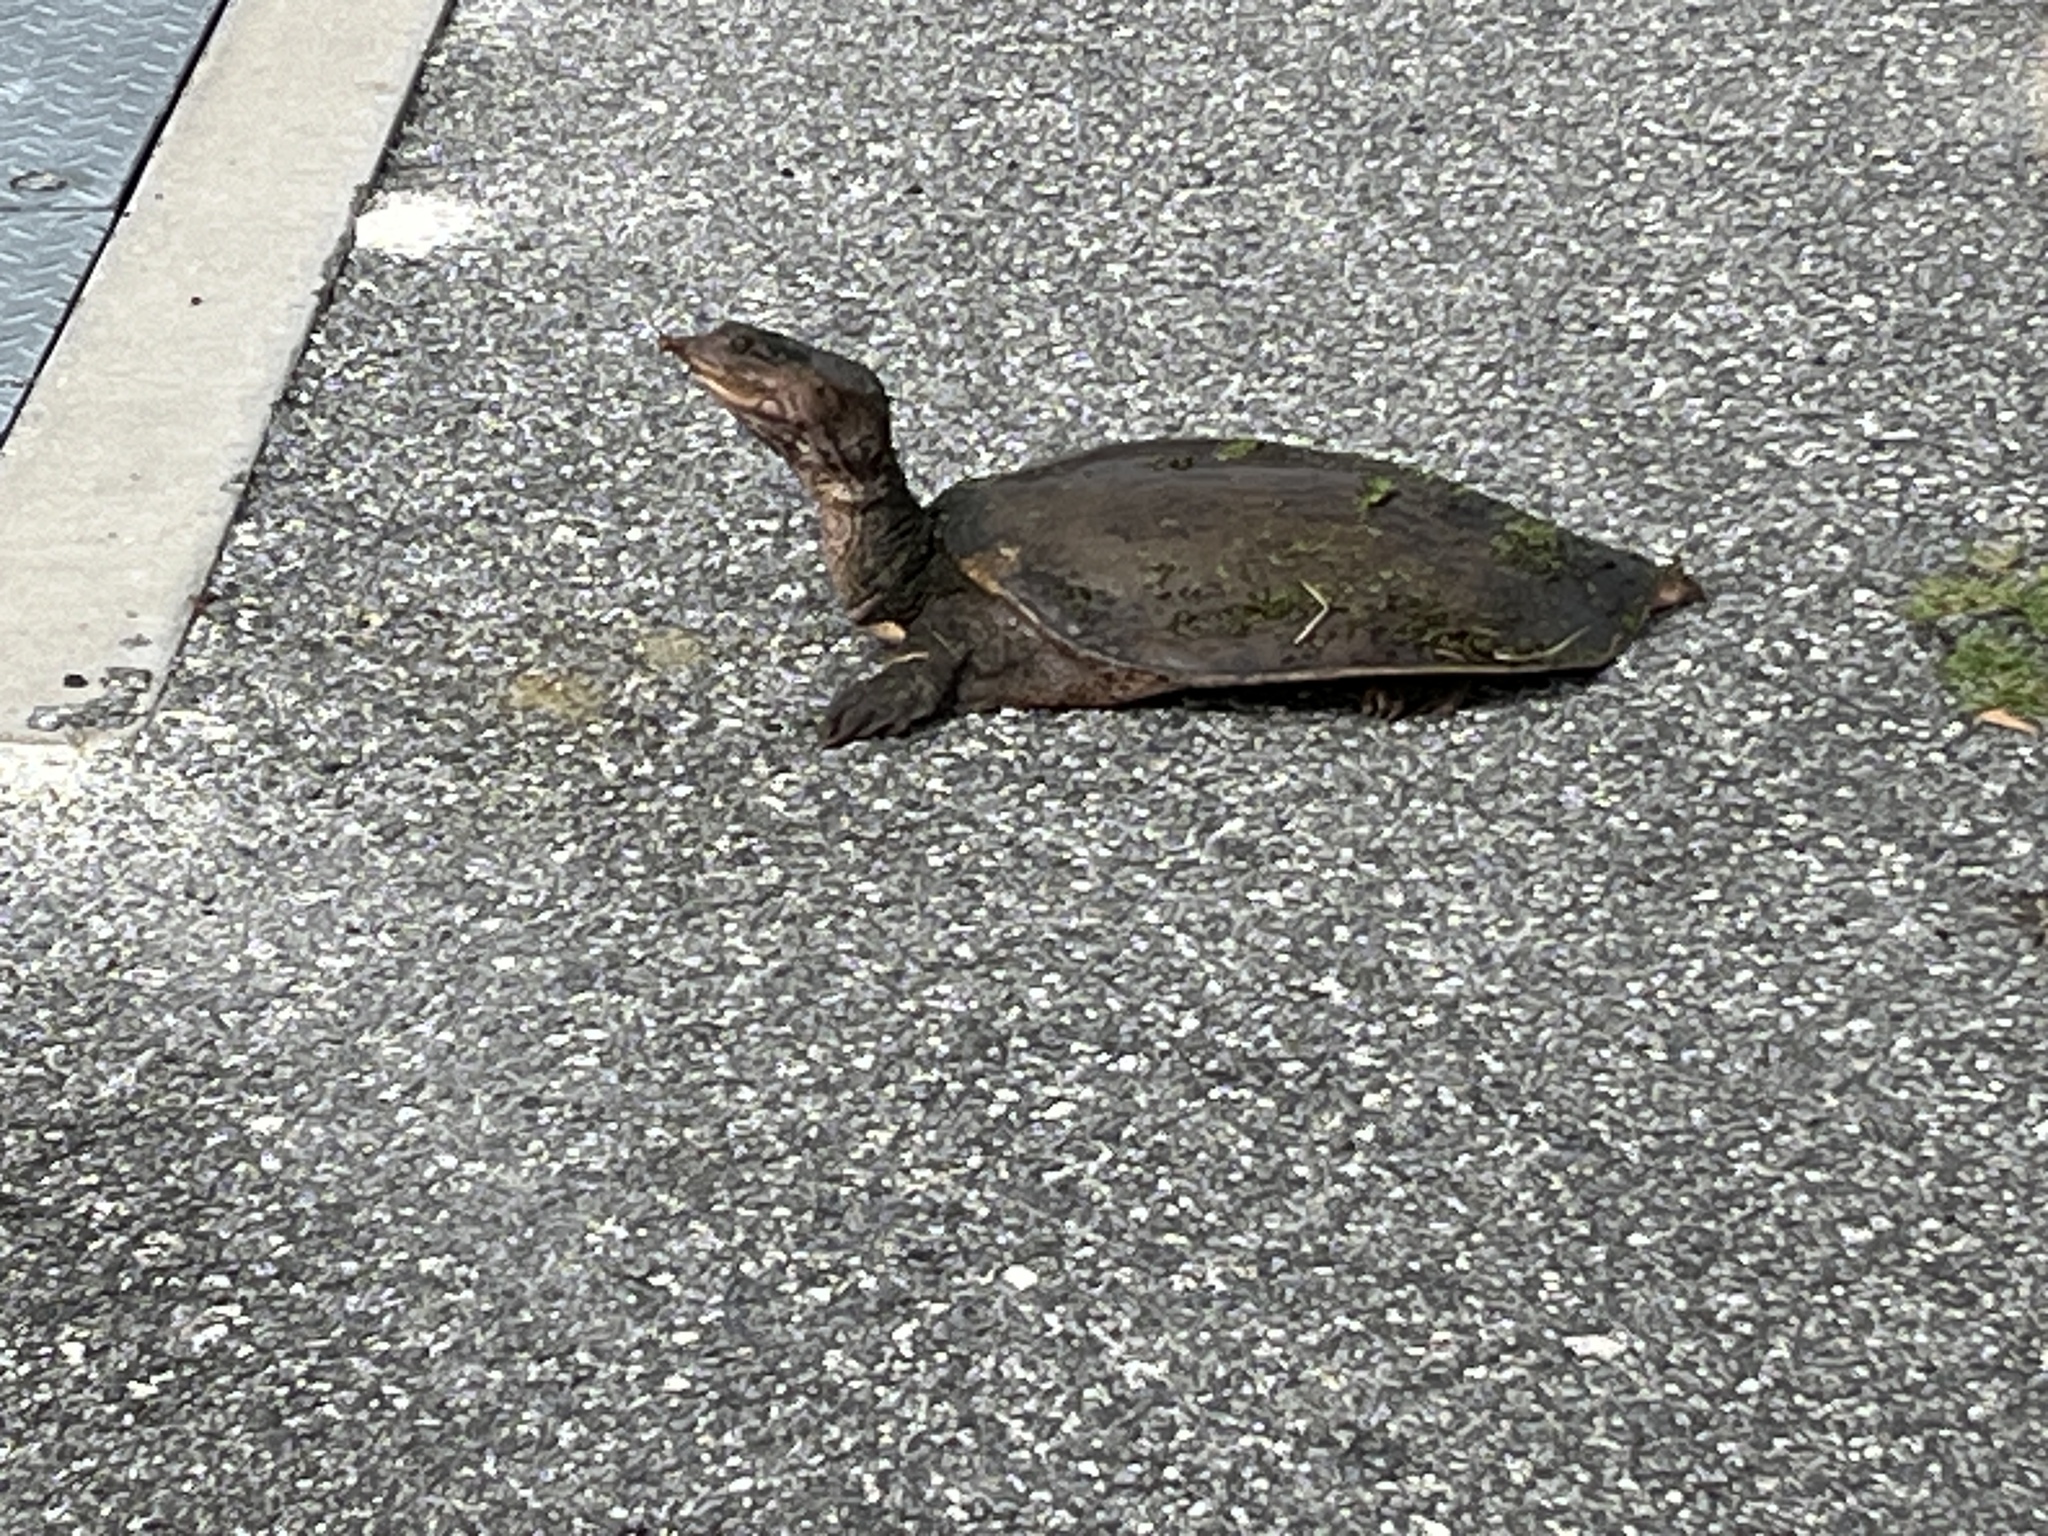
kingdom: Animalia
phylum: Chordata
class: Testudines
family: Trionychidae
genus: Apalone
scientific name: Apalone ferox
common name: Florida softshell turtle
